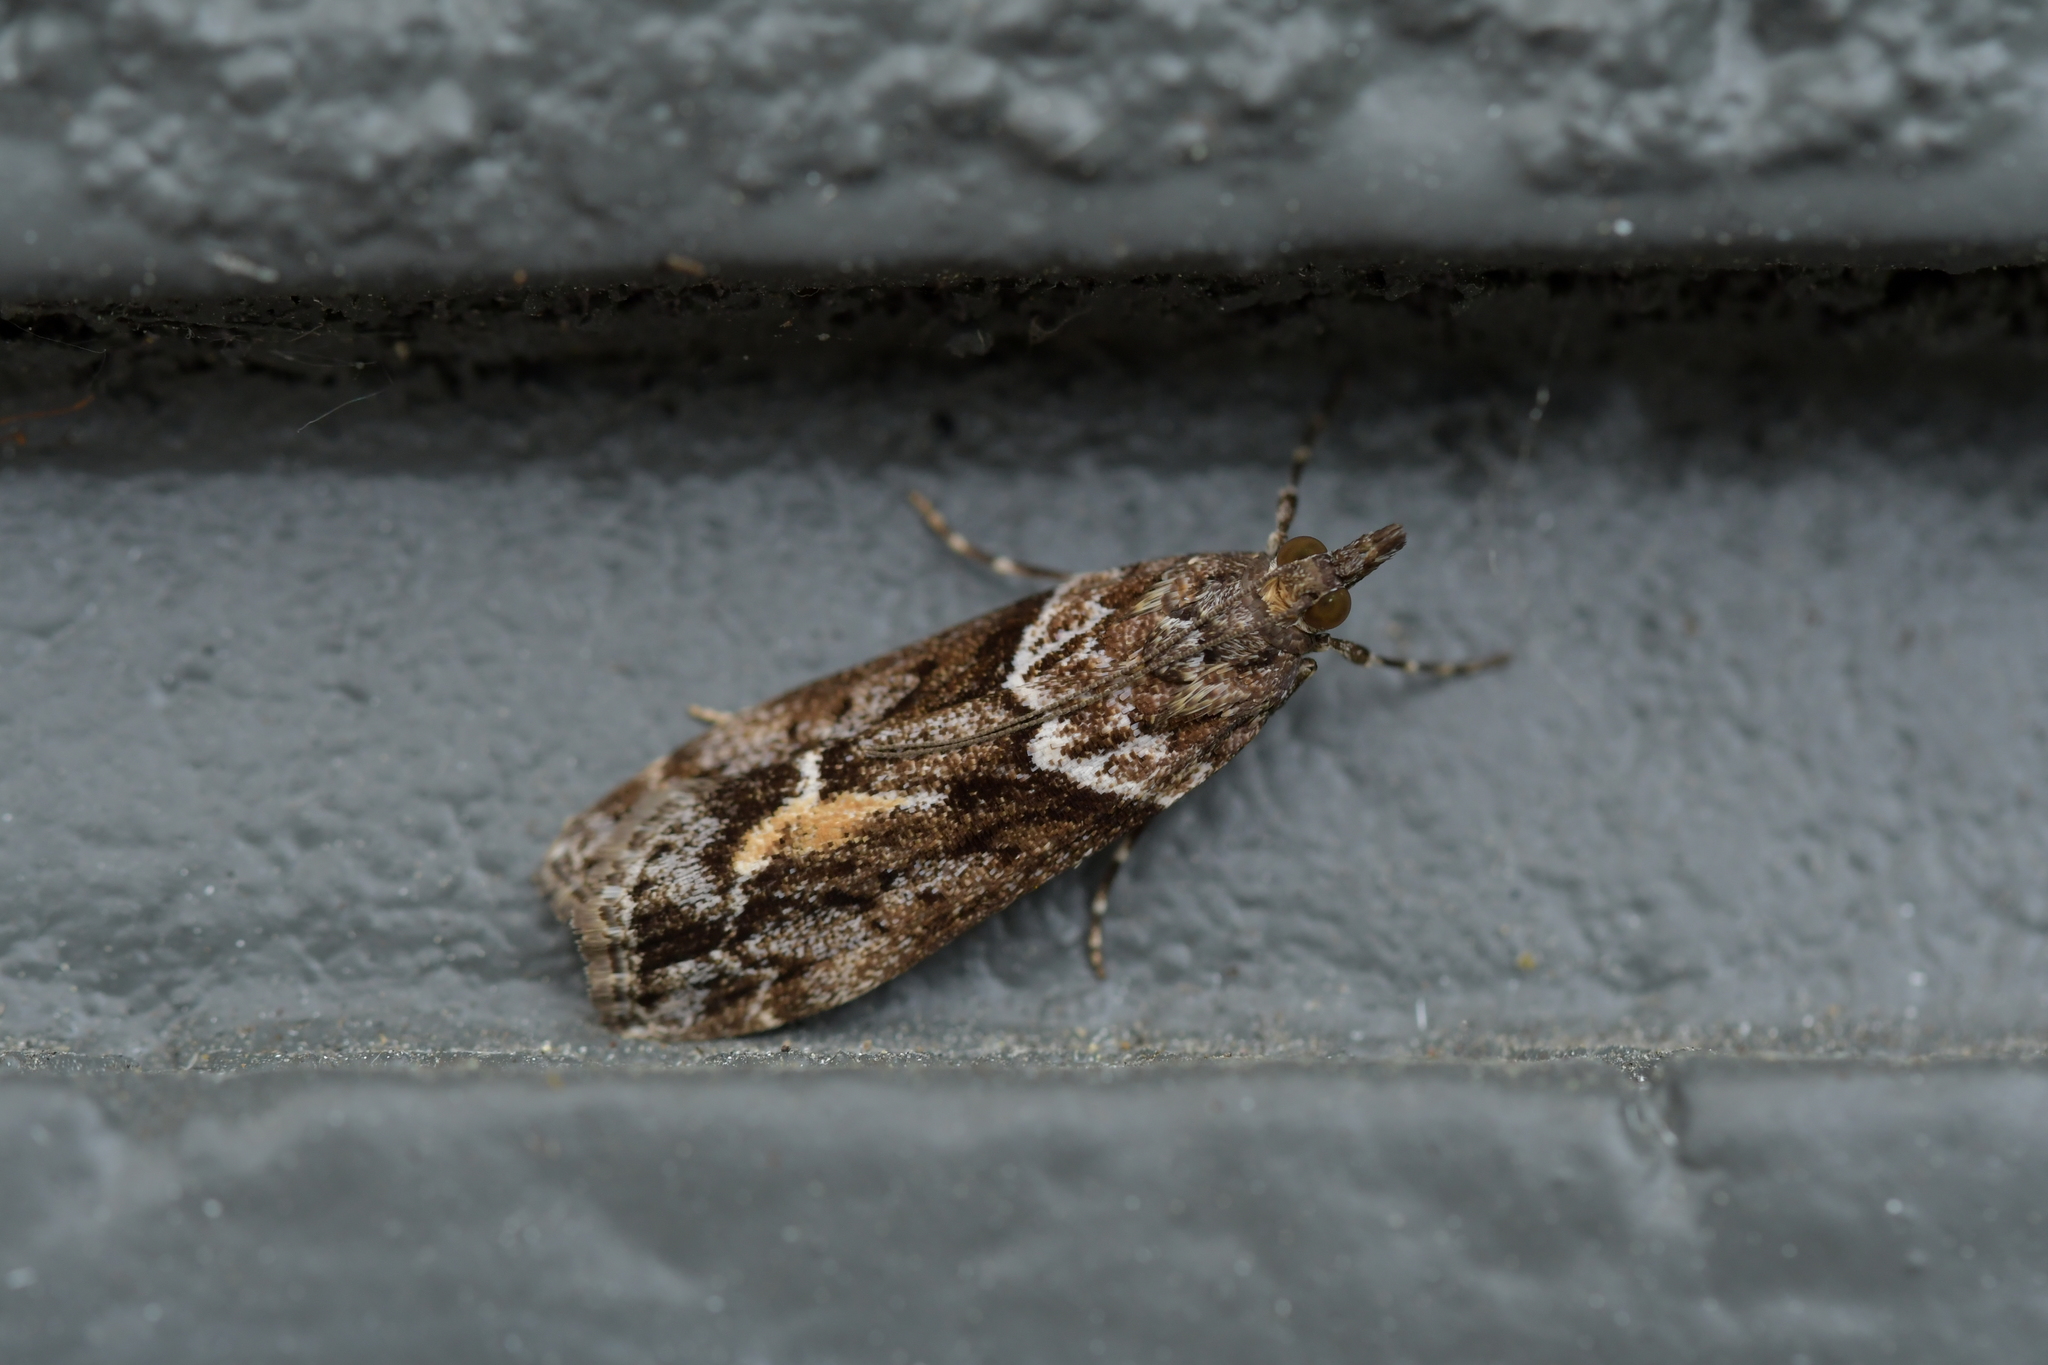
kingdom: Animalia
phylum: Arthropoda
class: Insecta
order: Lepidoptera
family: Crambidae
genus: Eudonia
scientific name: Eudonia submarginalis
